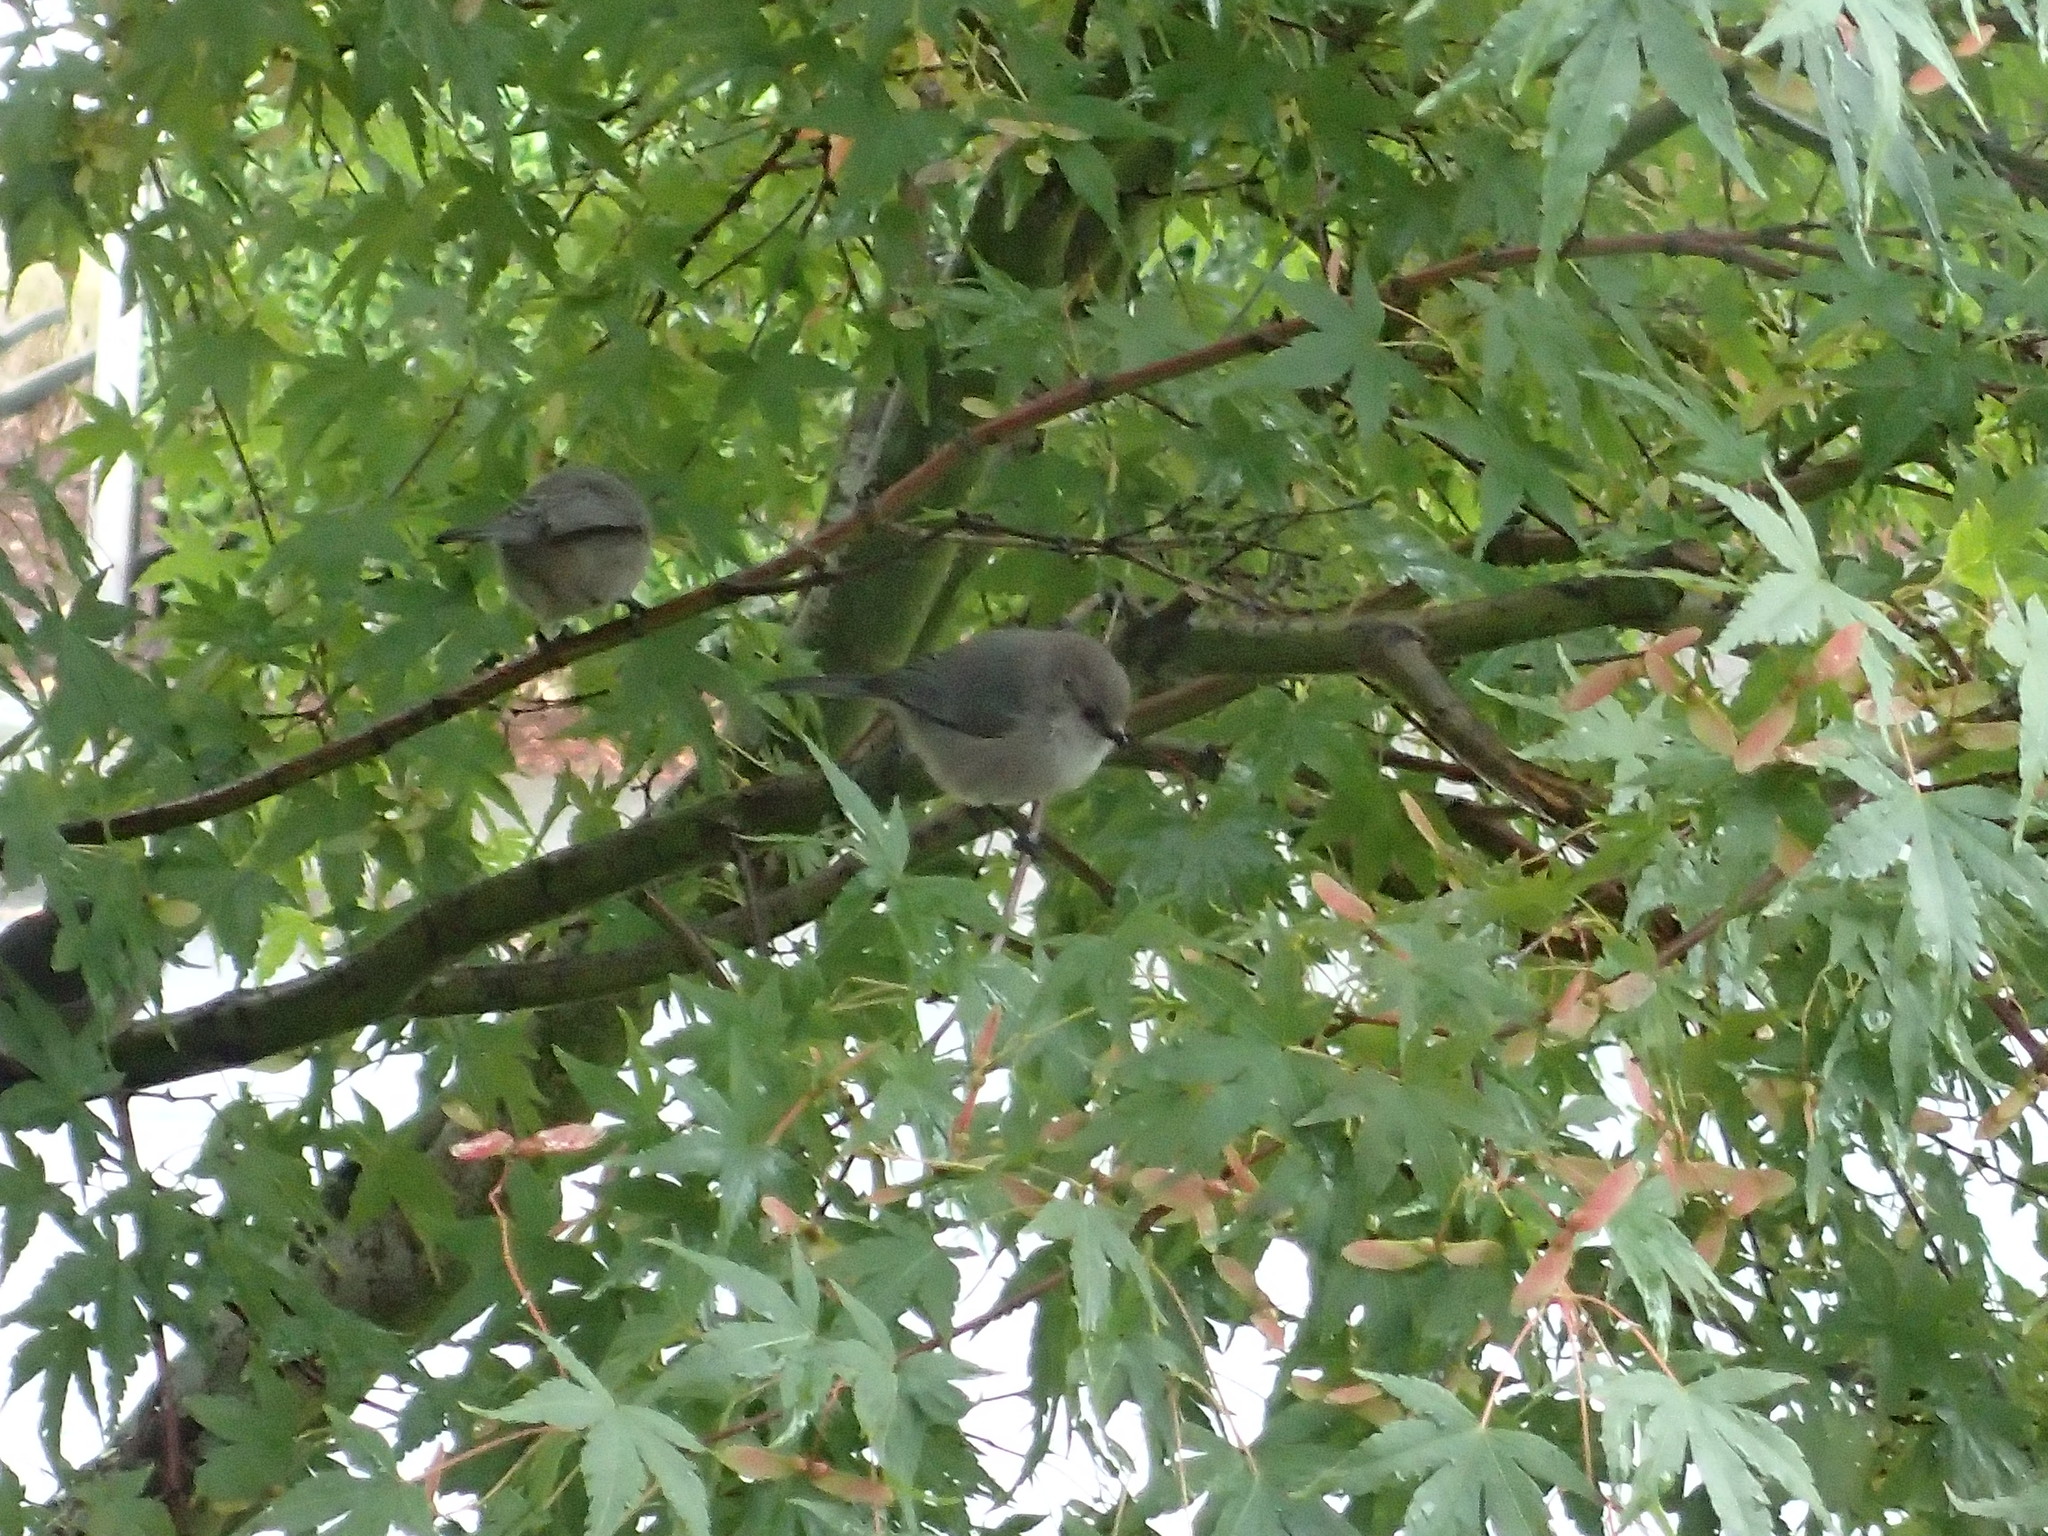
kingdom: Animalia
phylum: Chordata
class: Aves
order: Passeriformes
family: Aegithalidae
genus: Psaltriparus
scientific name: Psaltriparus minimus
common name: American bushtit
